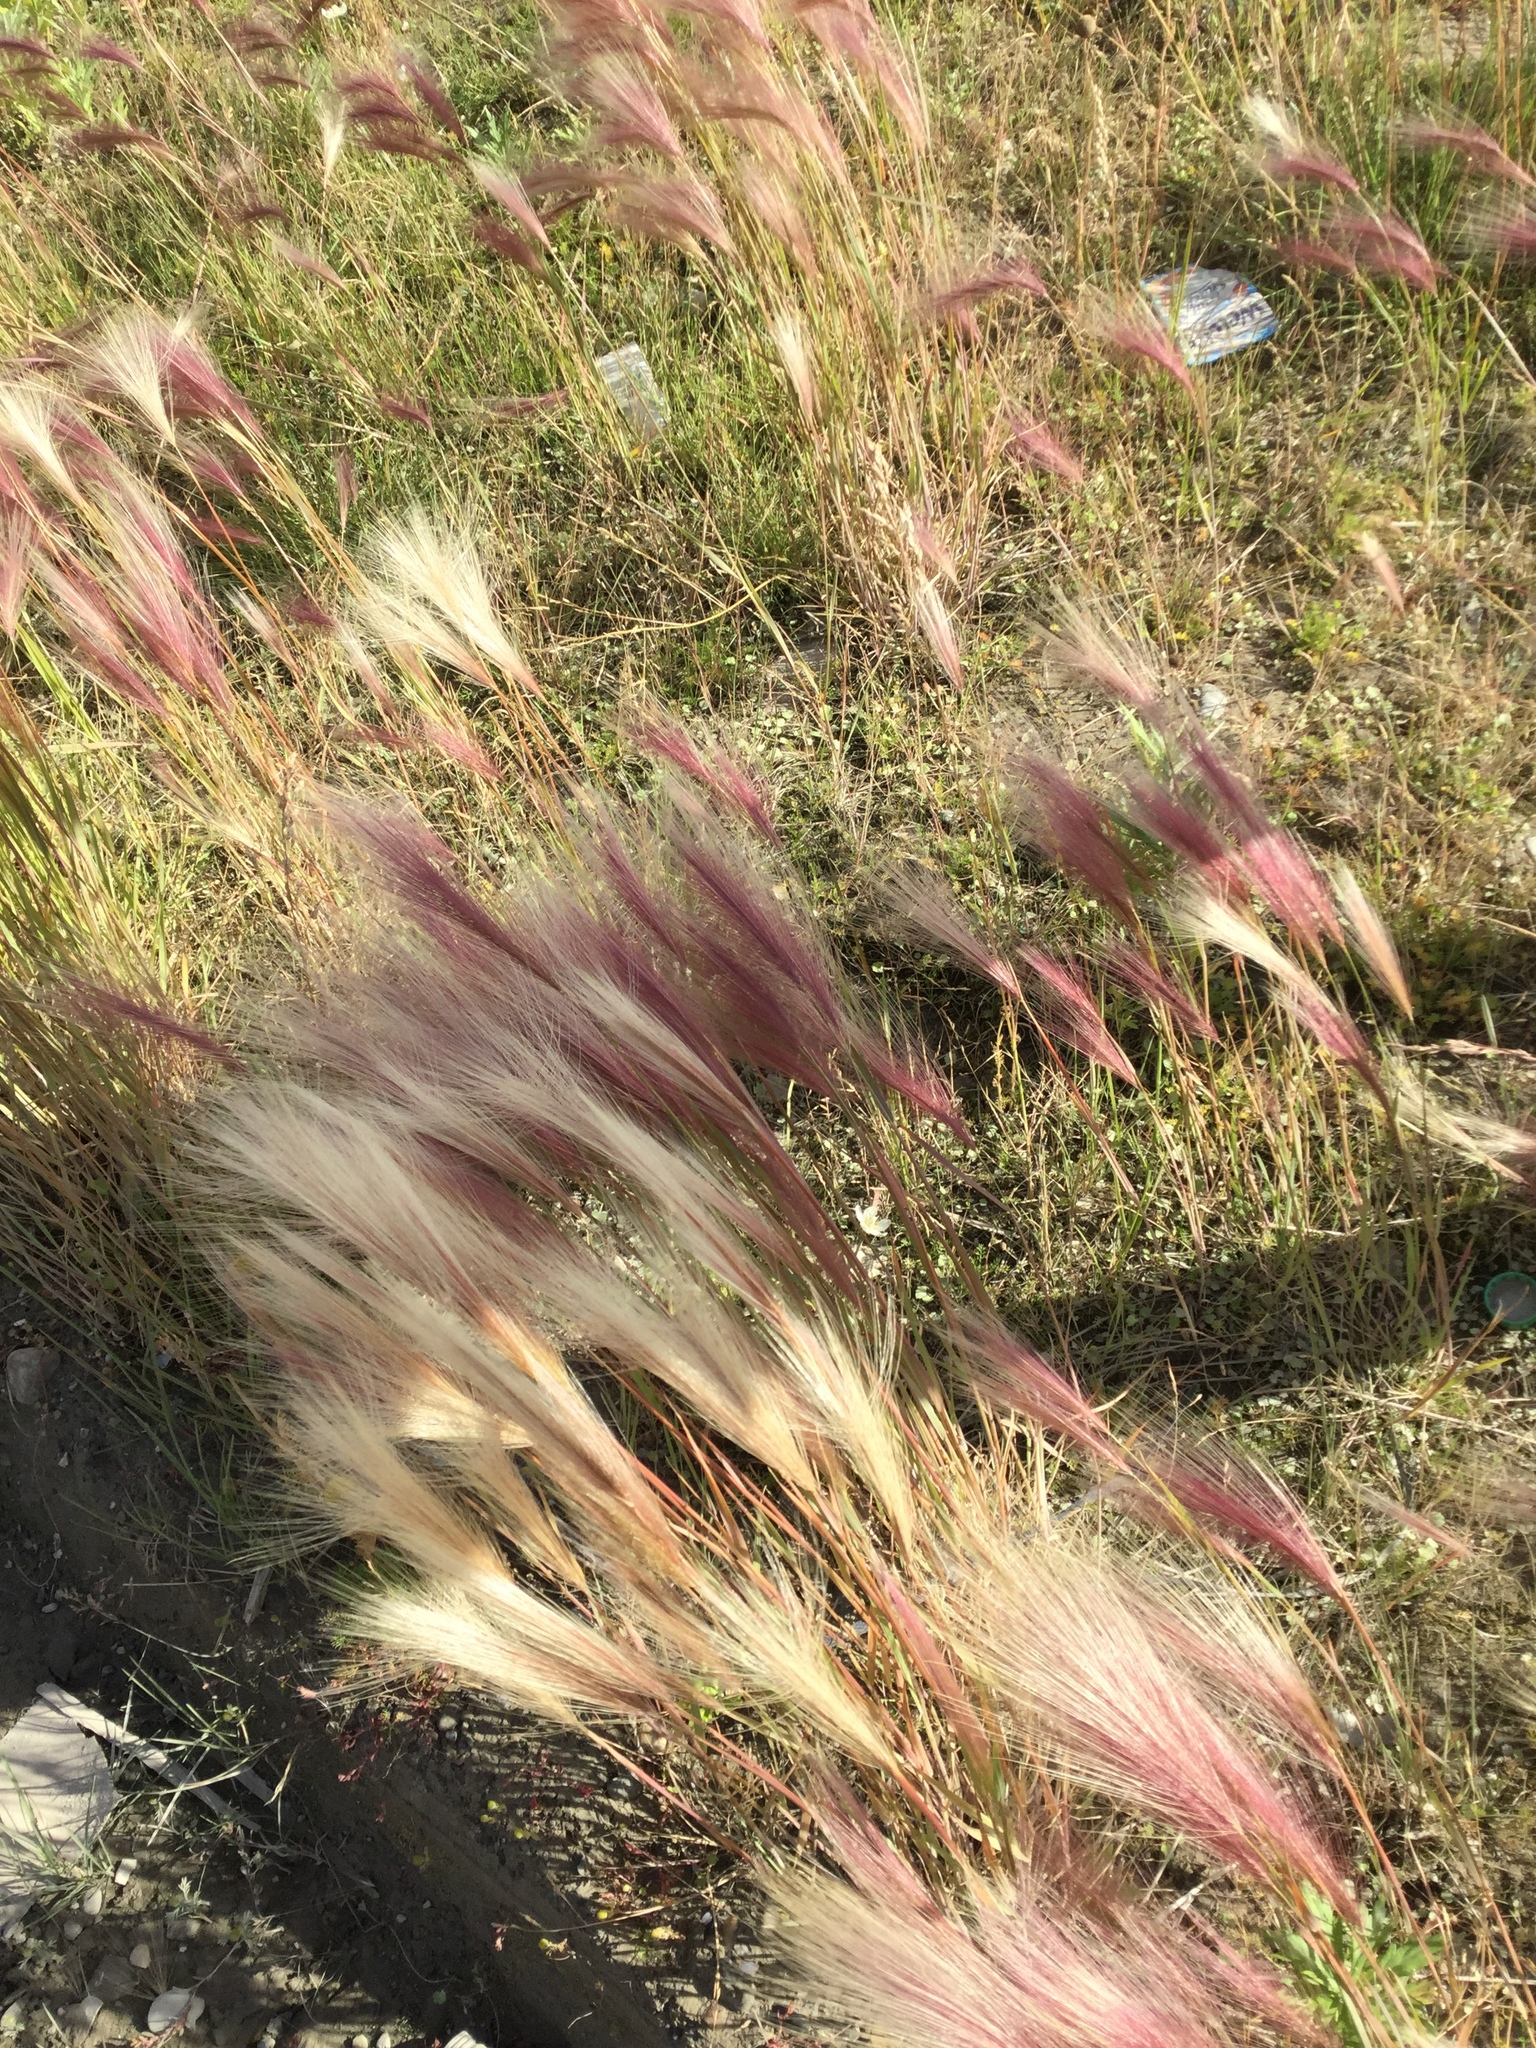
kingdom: Plantae
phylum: Tracheophyta
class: Liliopsida
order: Poales
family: Poaceae
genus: Hordeum
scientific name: Hordeum jubatum
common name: Foxtail barley
